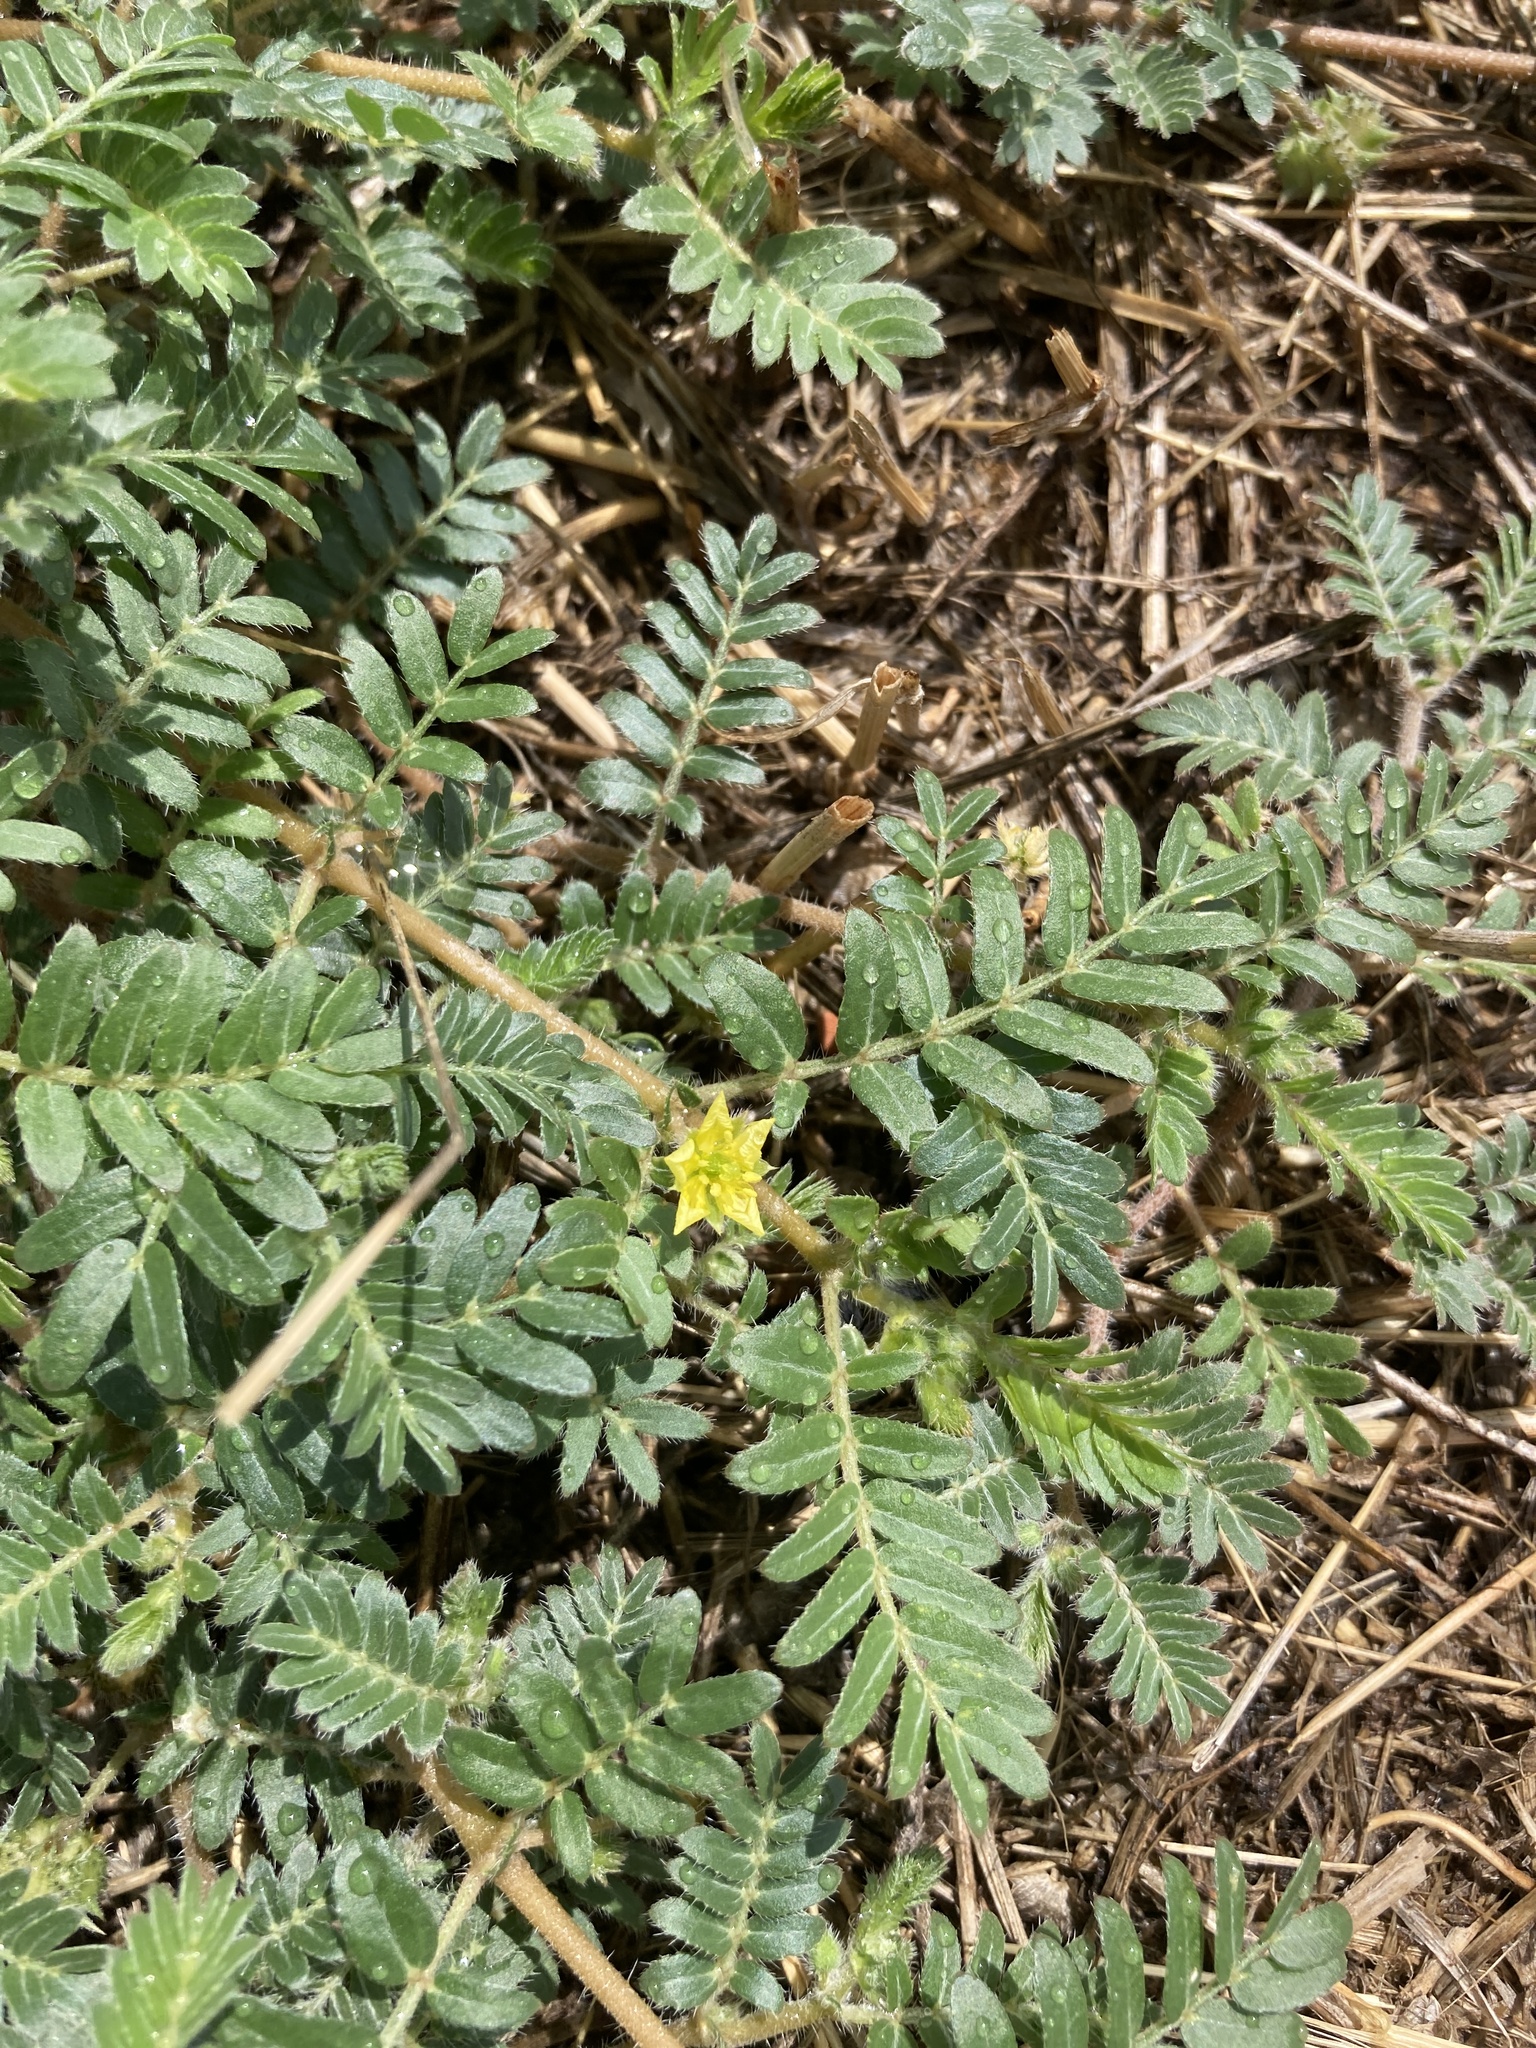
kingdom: Plantae
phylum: Tracheophyta
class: Magnoliopsida
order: Zygophyllales
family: Zygophyllaceae
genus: Tribulus
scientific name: Tribulus terrestris
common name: Puncturevine
